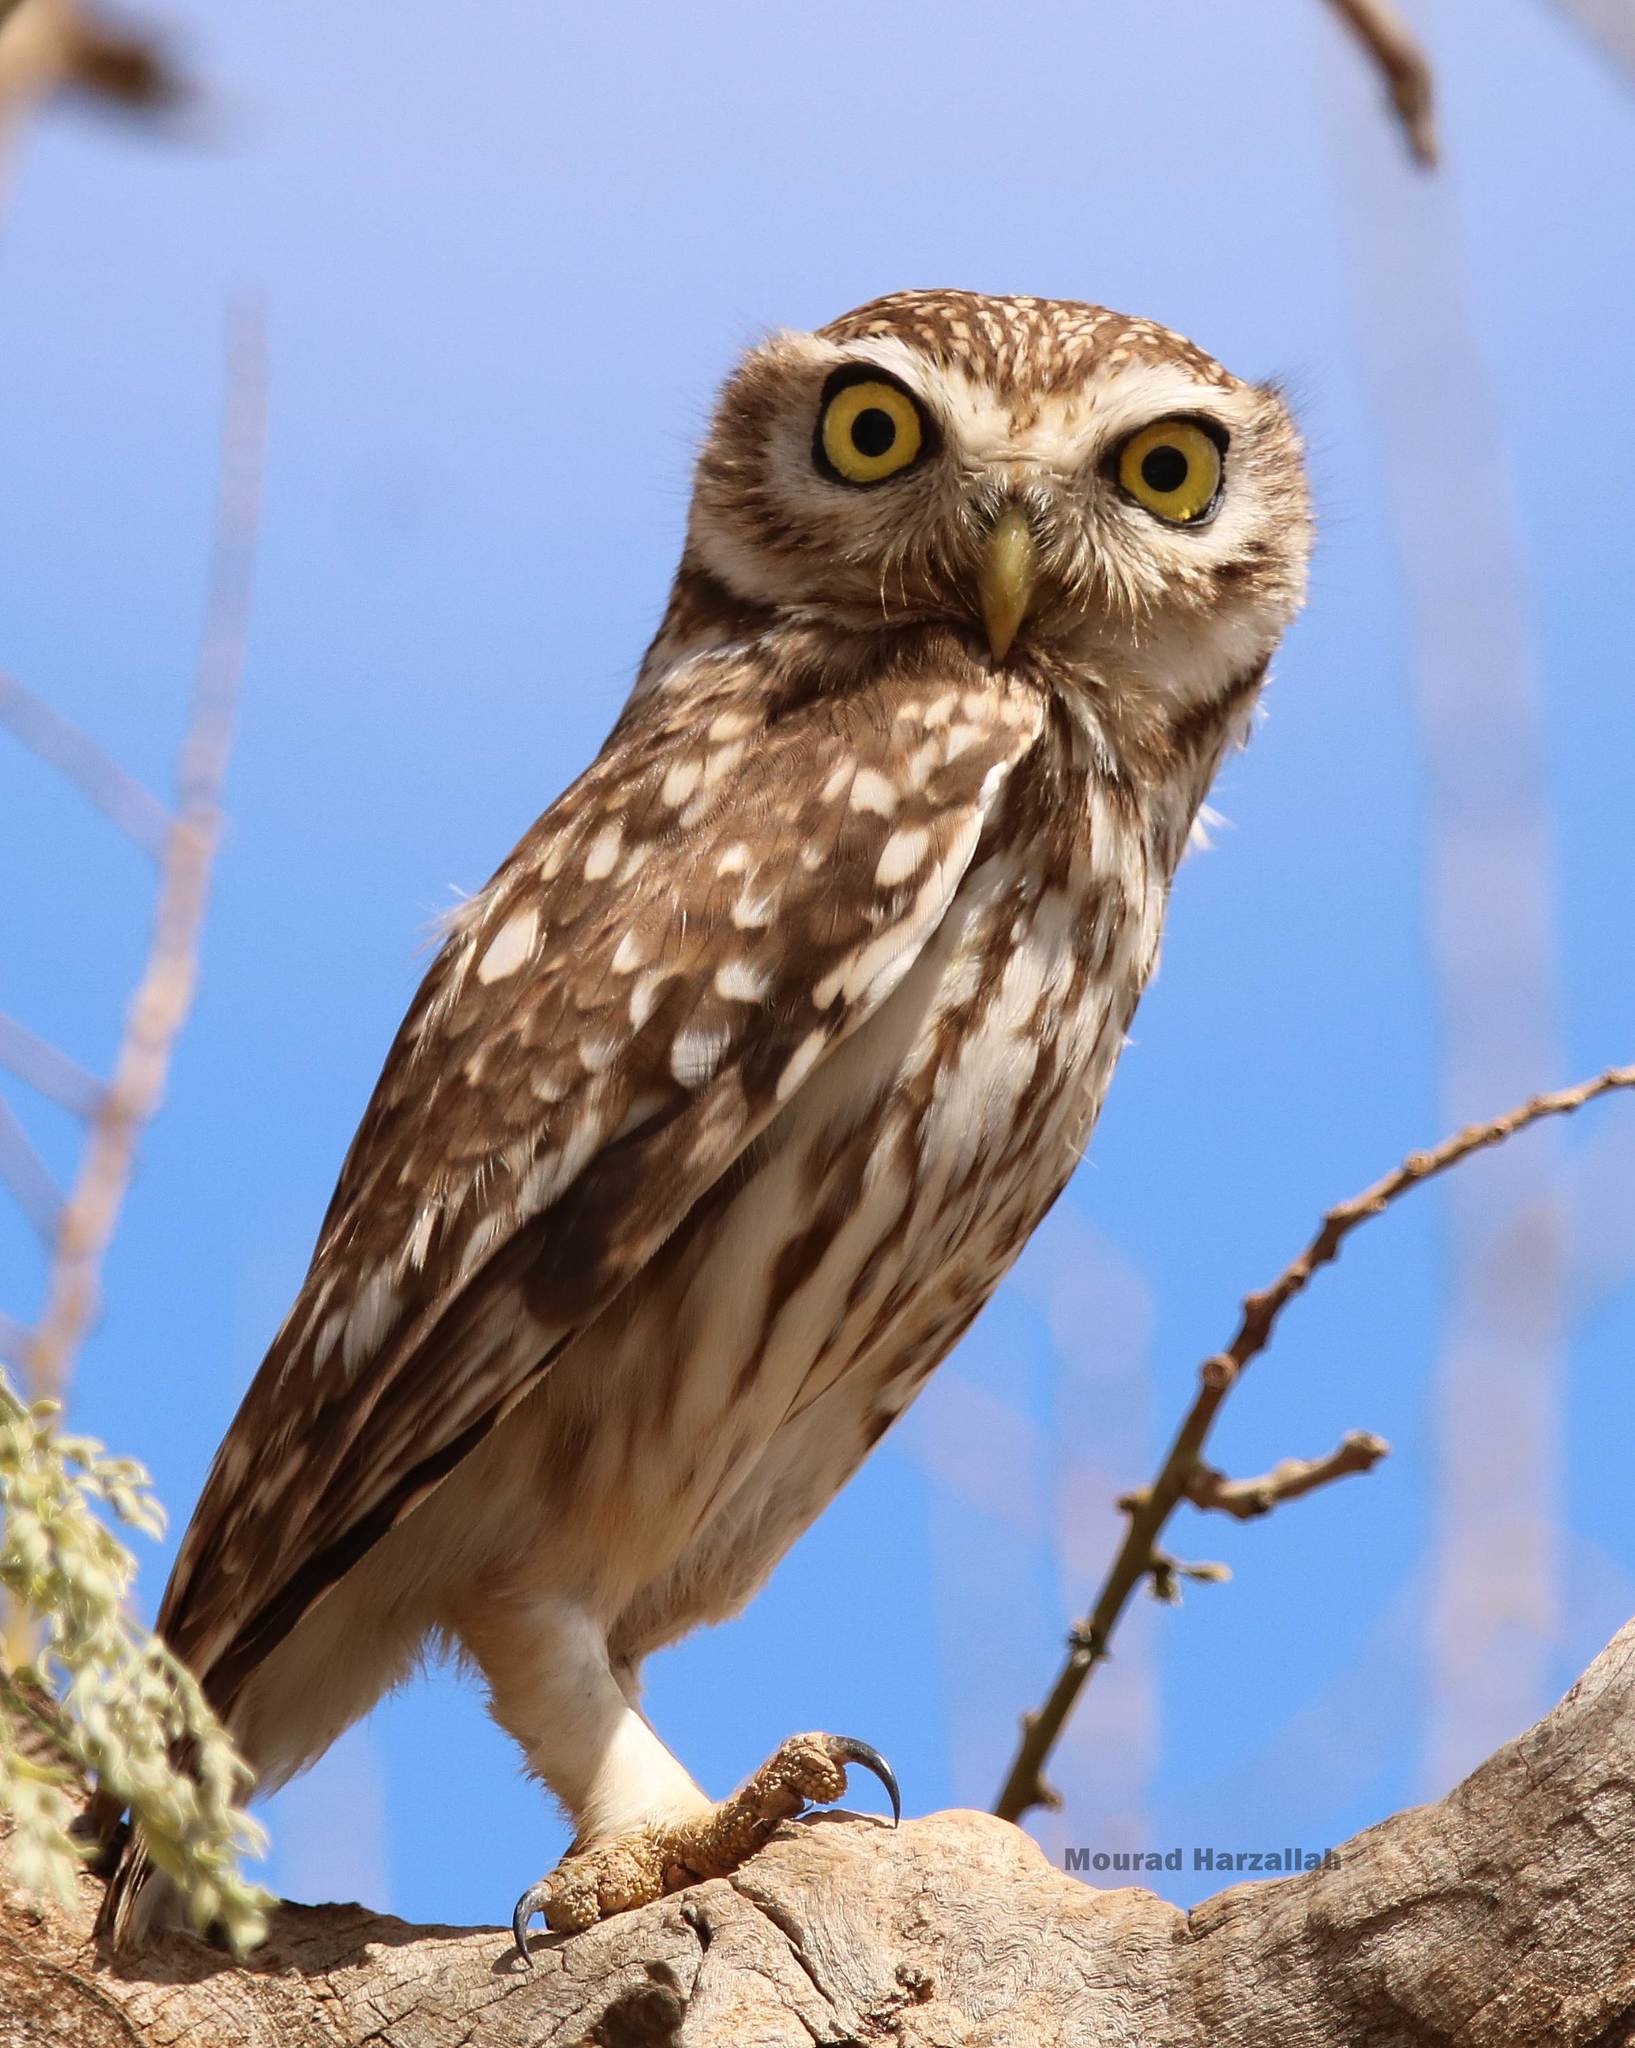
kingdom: Animalia
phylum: Chordata
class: Aves
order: Strigiformes
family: Strigidae
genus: Athene
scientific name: Athene noctua
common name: Little owl
